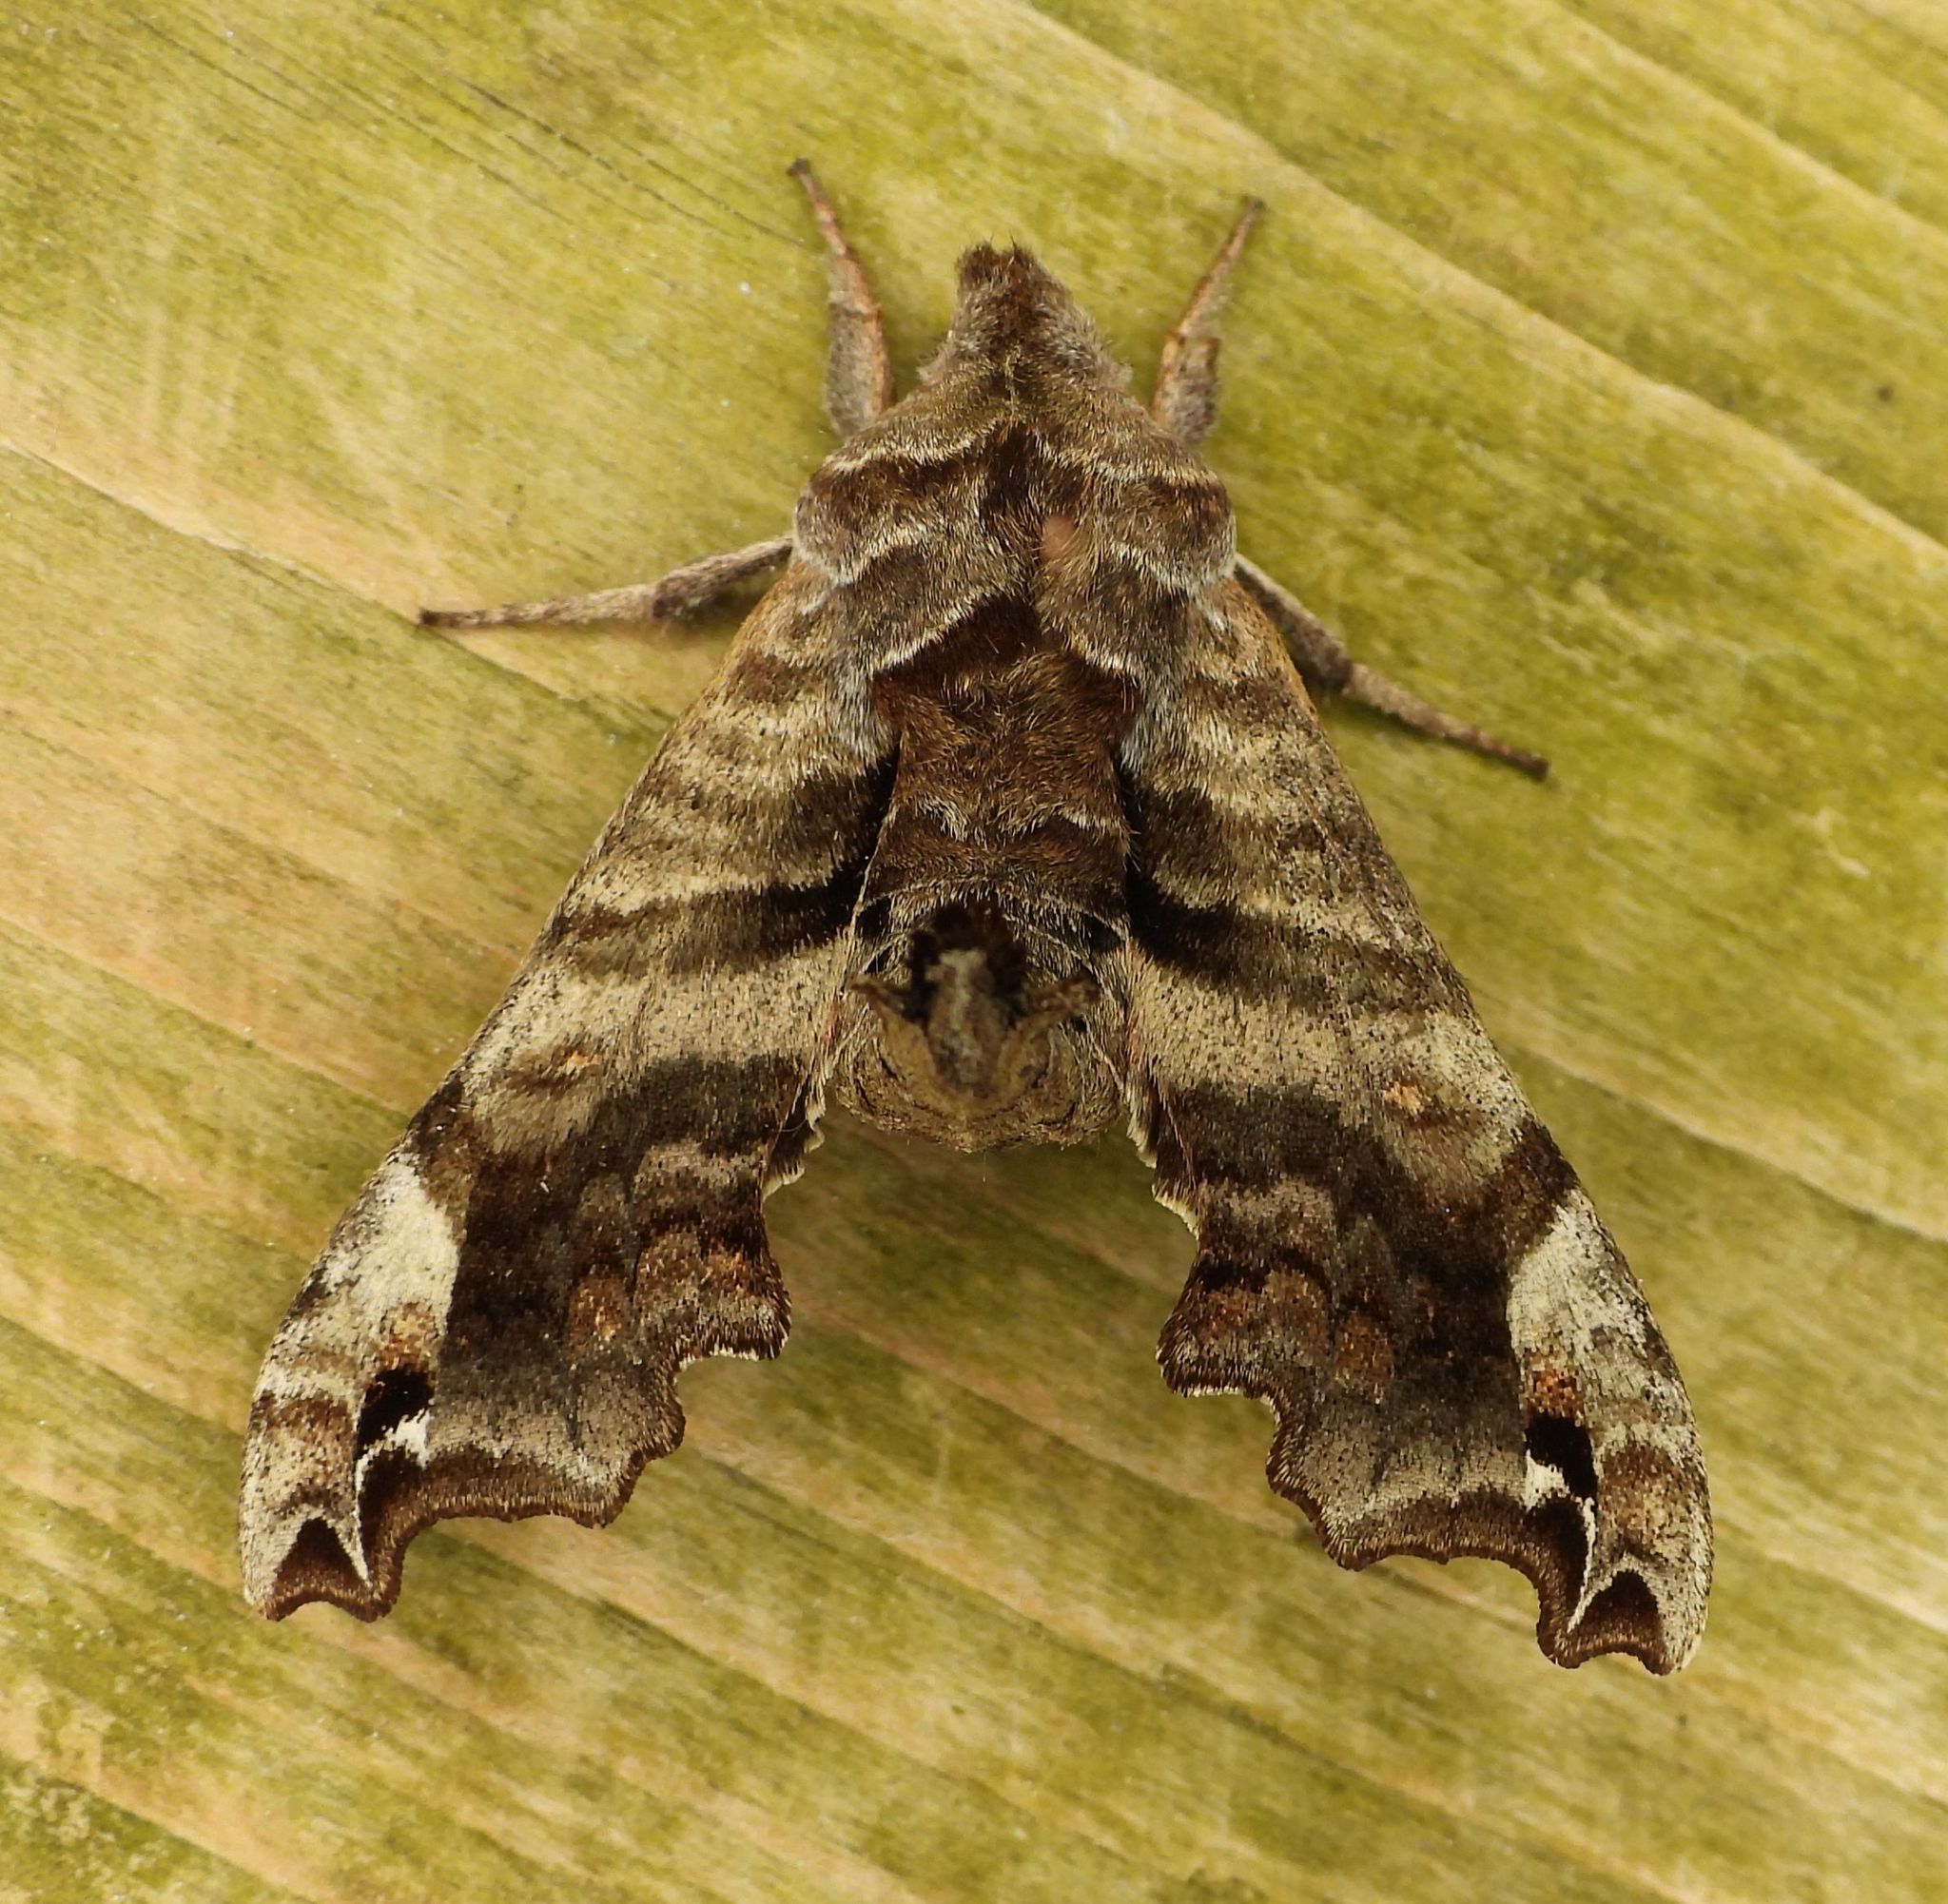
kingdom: Animalia
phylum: Arthropoda
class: Insecta
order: Lepidoptera
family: Sphingidae
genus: Deidamia
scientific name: Deidamia inscriptum
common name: Lettered sphinx
